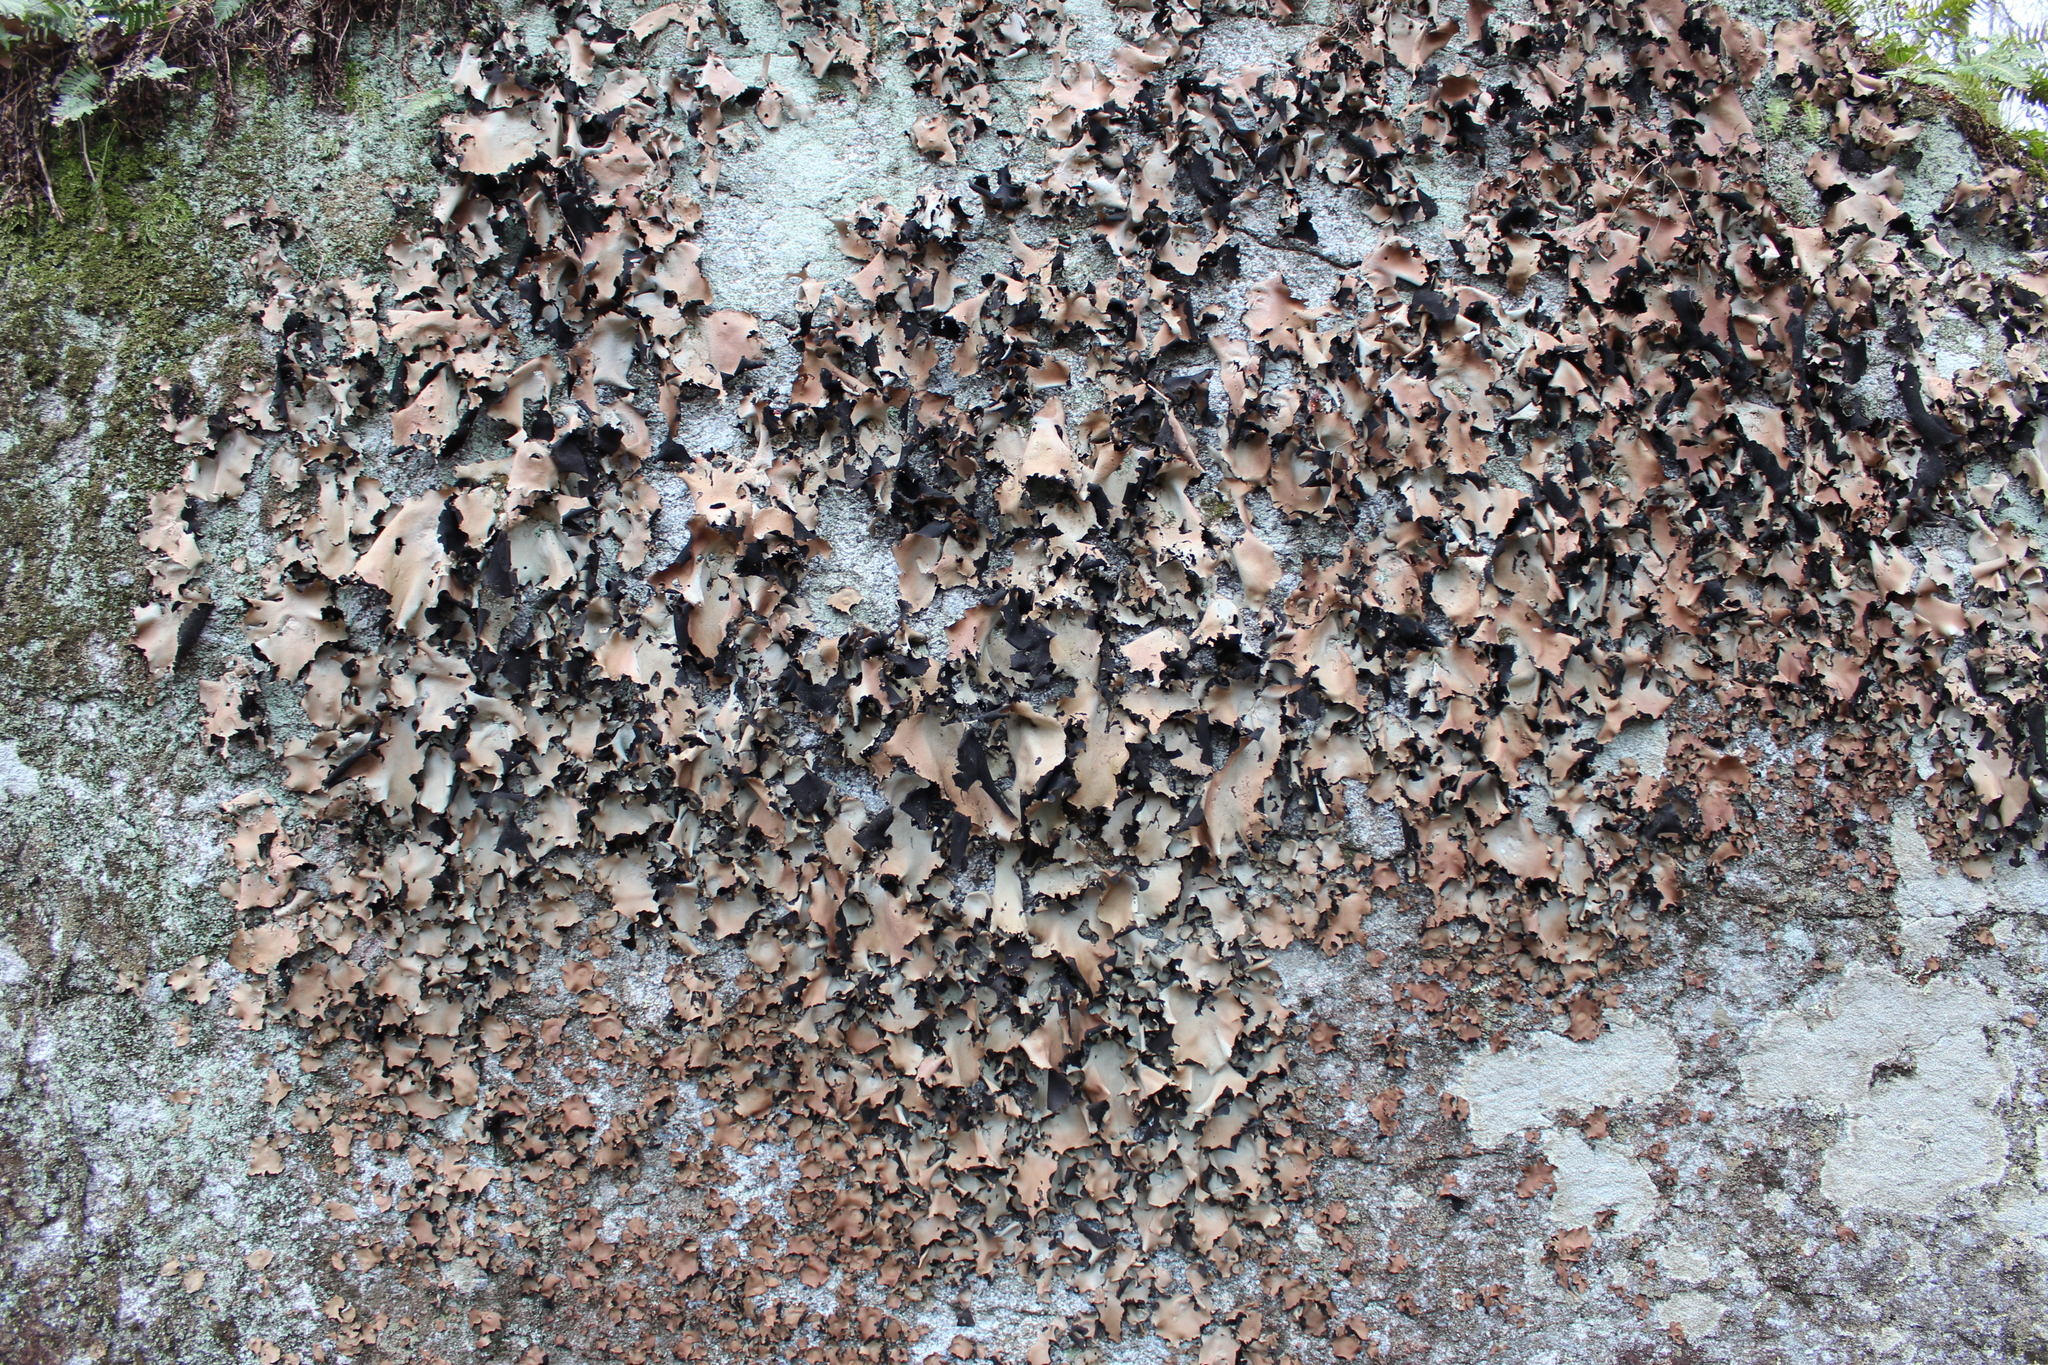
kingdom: Fungi
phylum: Ascomycota
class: Lecanoromycetes
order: Umbilicariales
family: Umbilicariaceae
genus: Umbilicaria
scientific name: Umbilicaria mammulata
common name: Smooth rock tripe
